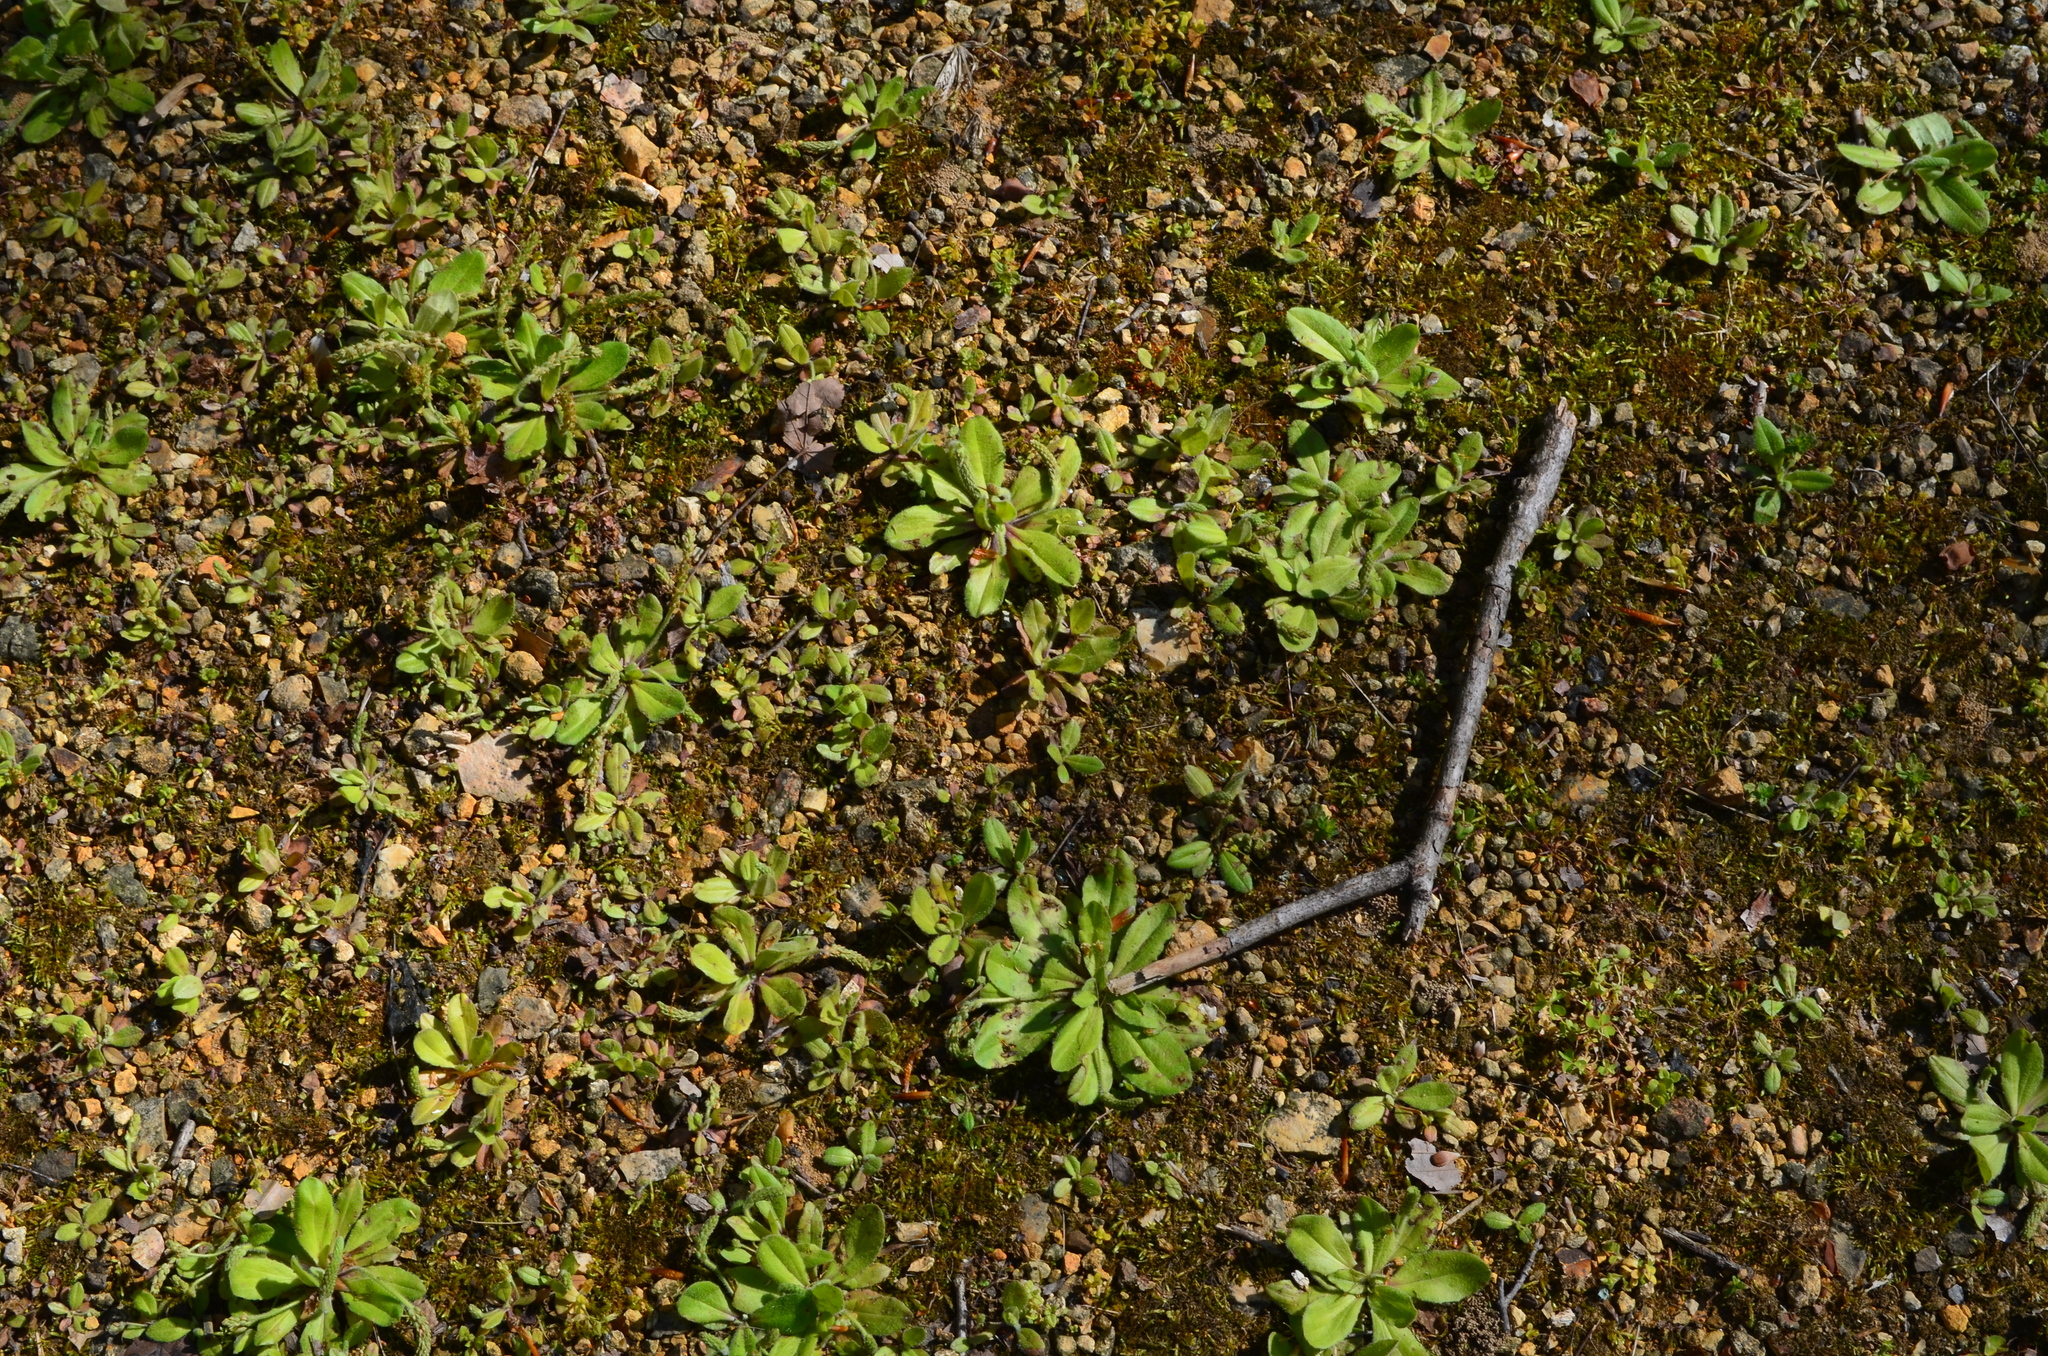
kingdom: Plantae
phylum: Tracheophyta
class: Magnoliopsida
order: Lamiales
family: Plantaginaceae
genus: Plantago
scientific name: Plantago virginica
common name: Hoary plantain
